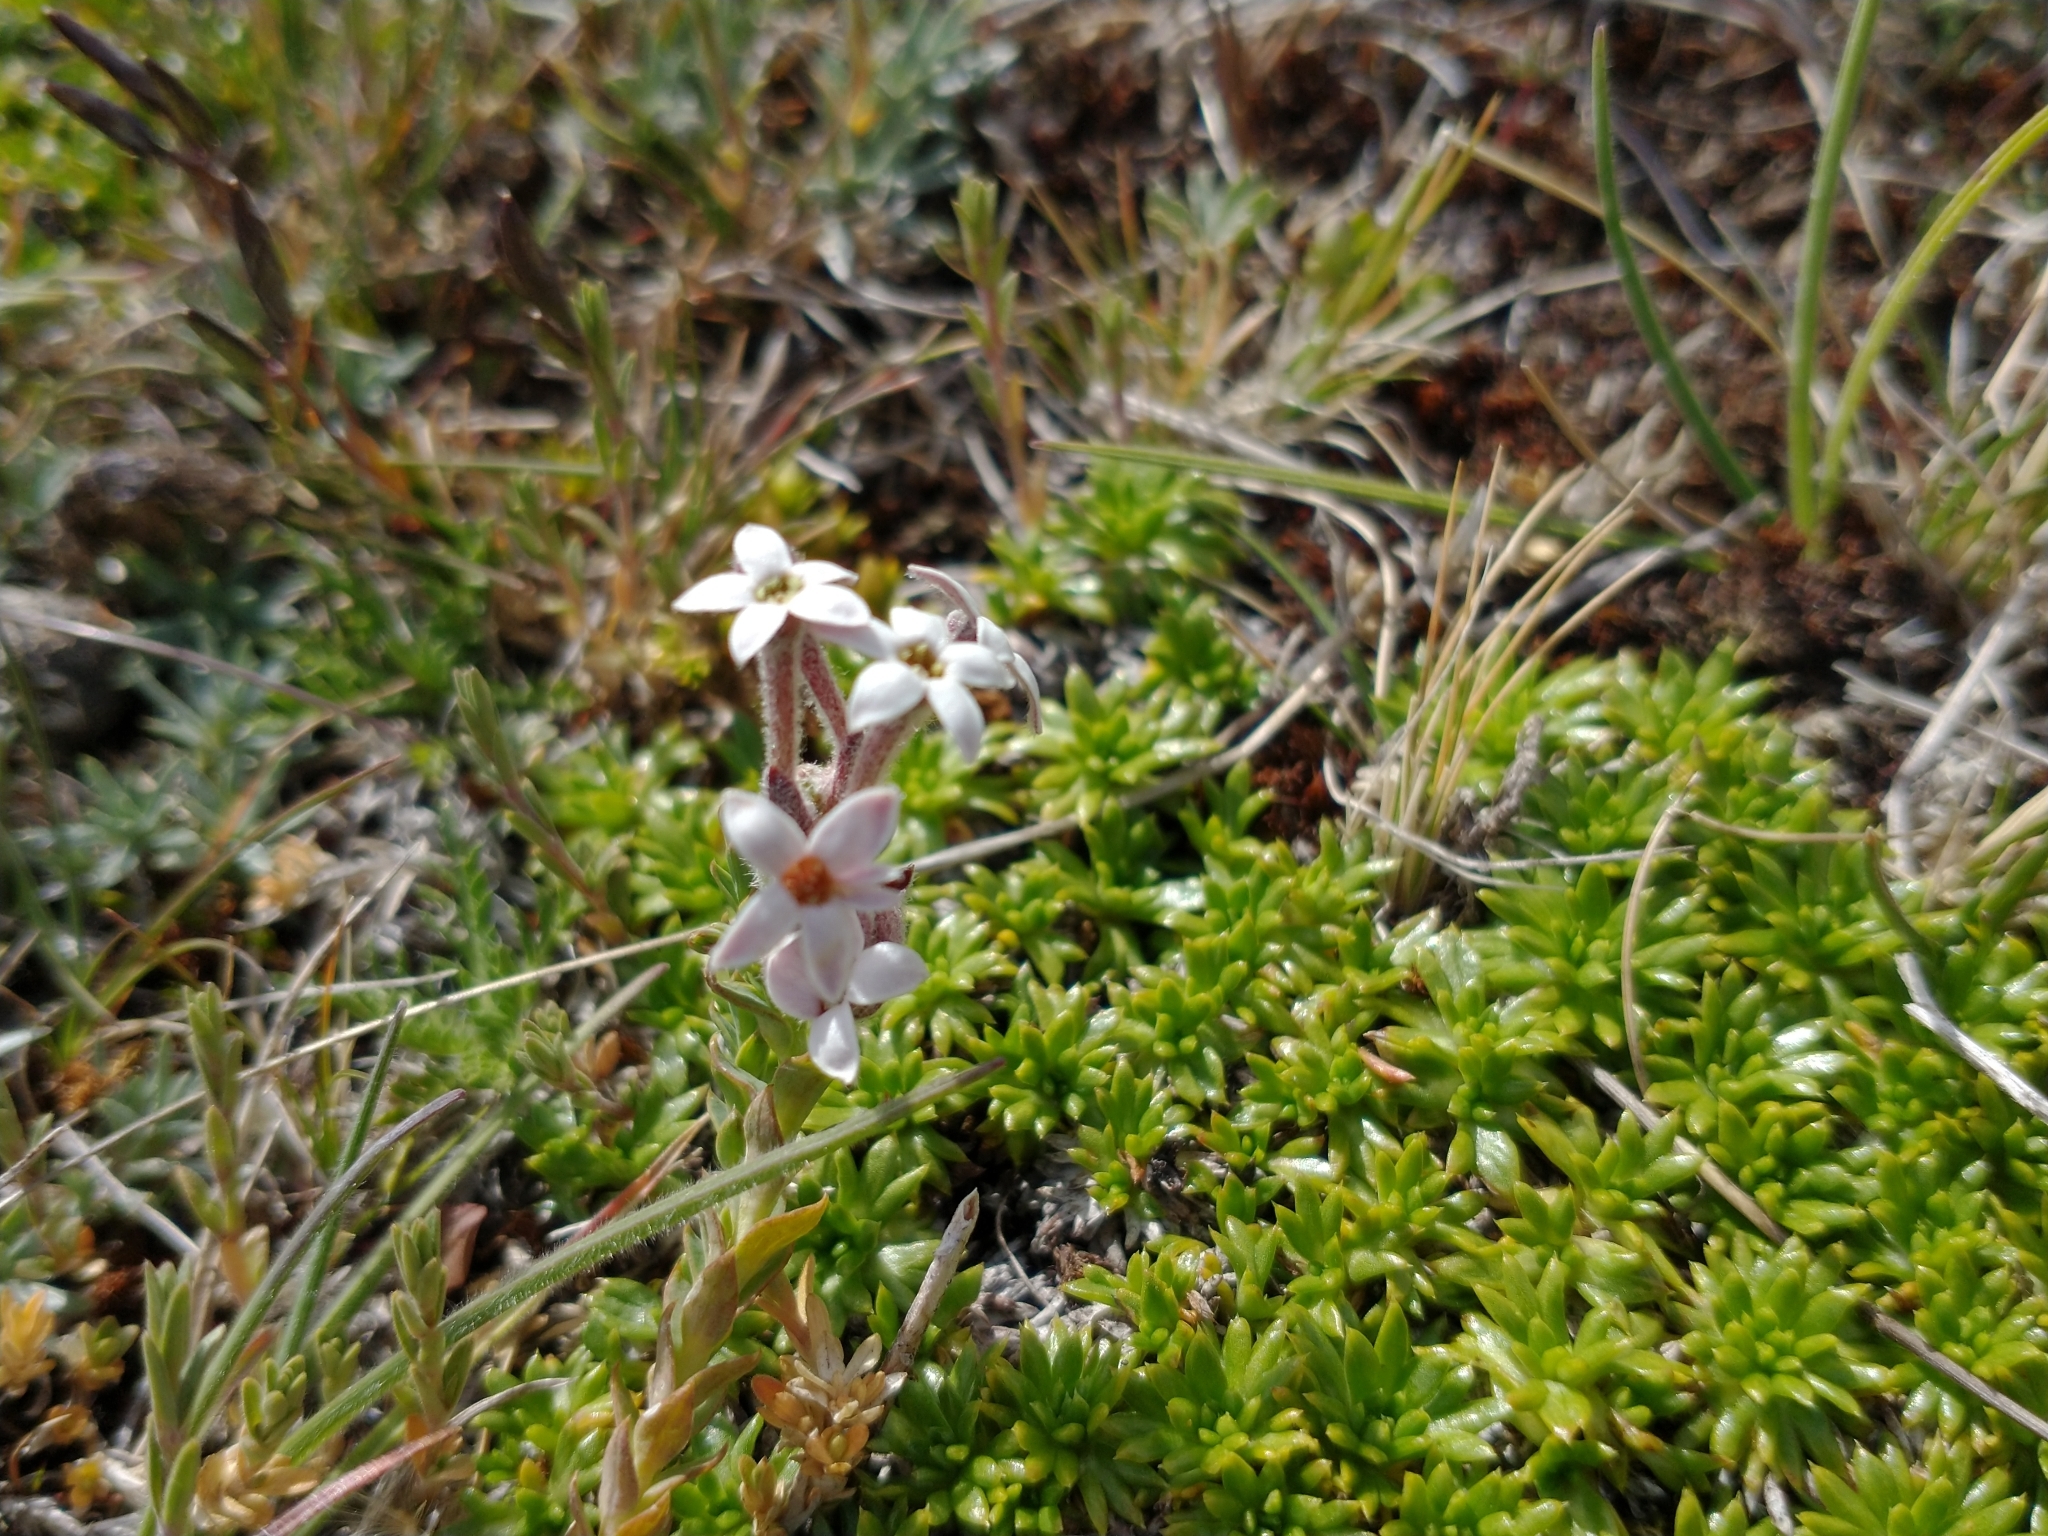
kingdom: Plantae
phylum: Tracheophyta
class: Magnoliopsida
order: Santalales
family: Schoepfiaceae
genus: Arjona
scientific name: Arjona patagonica
